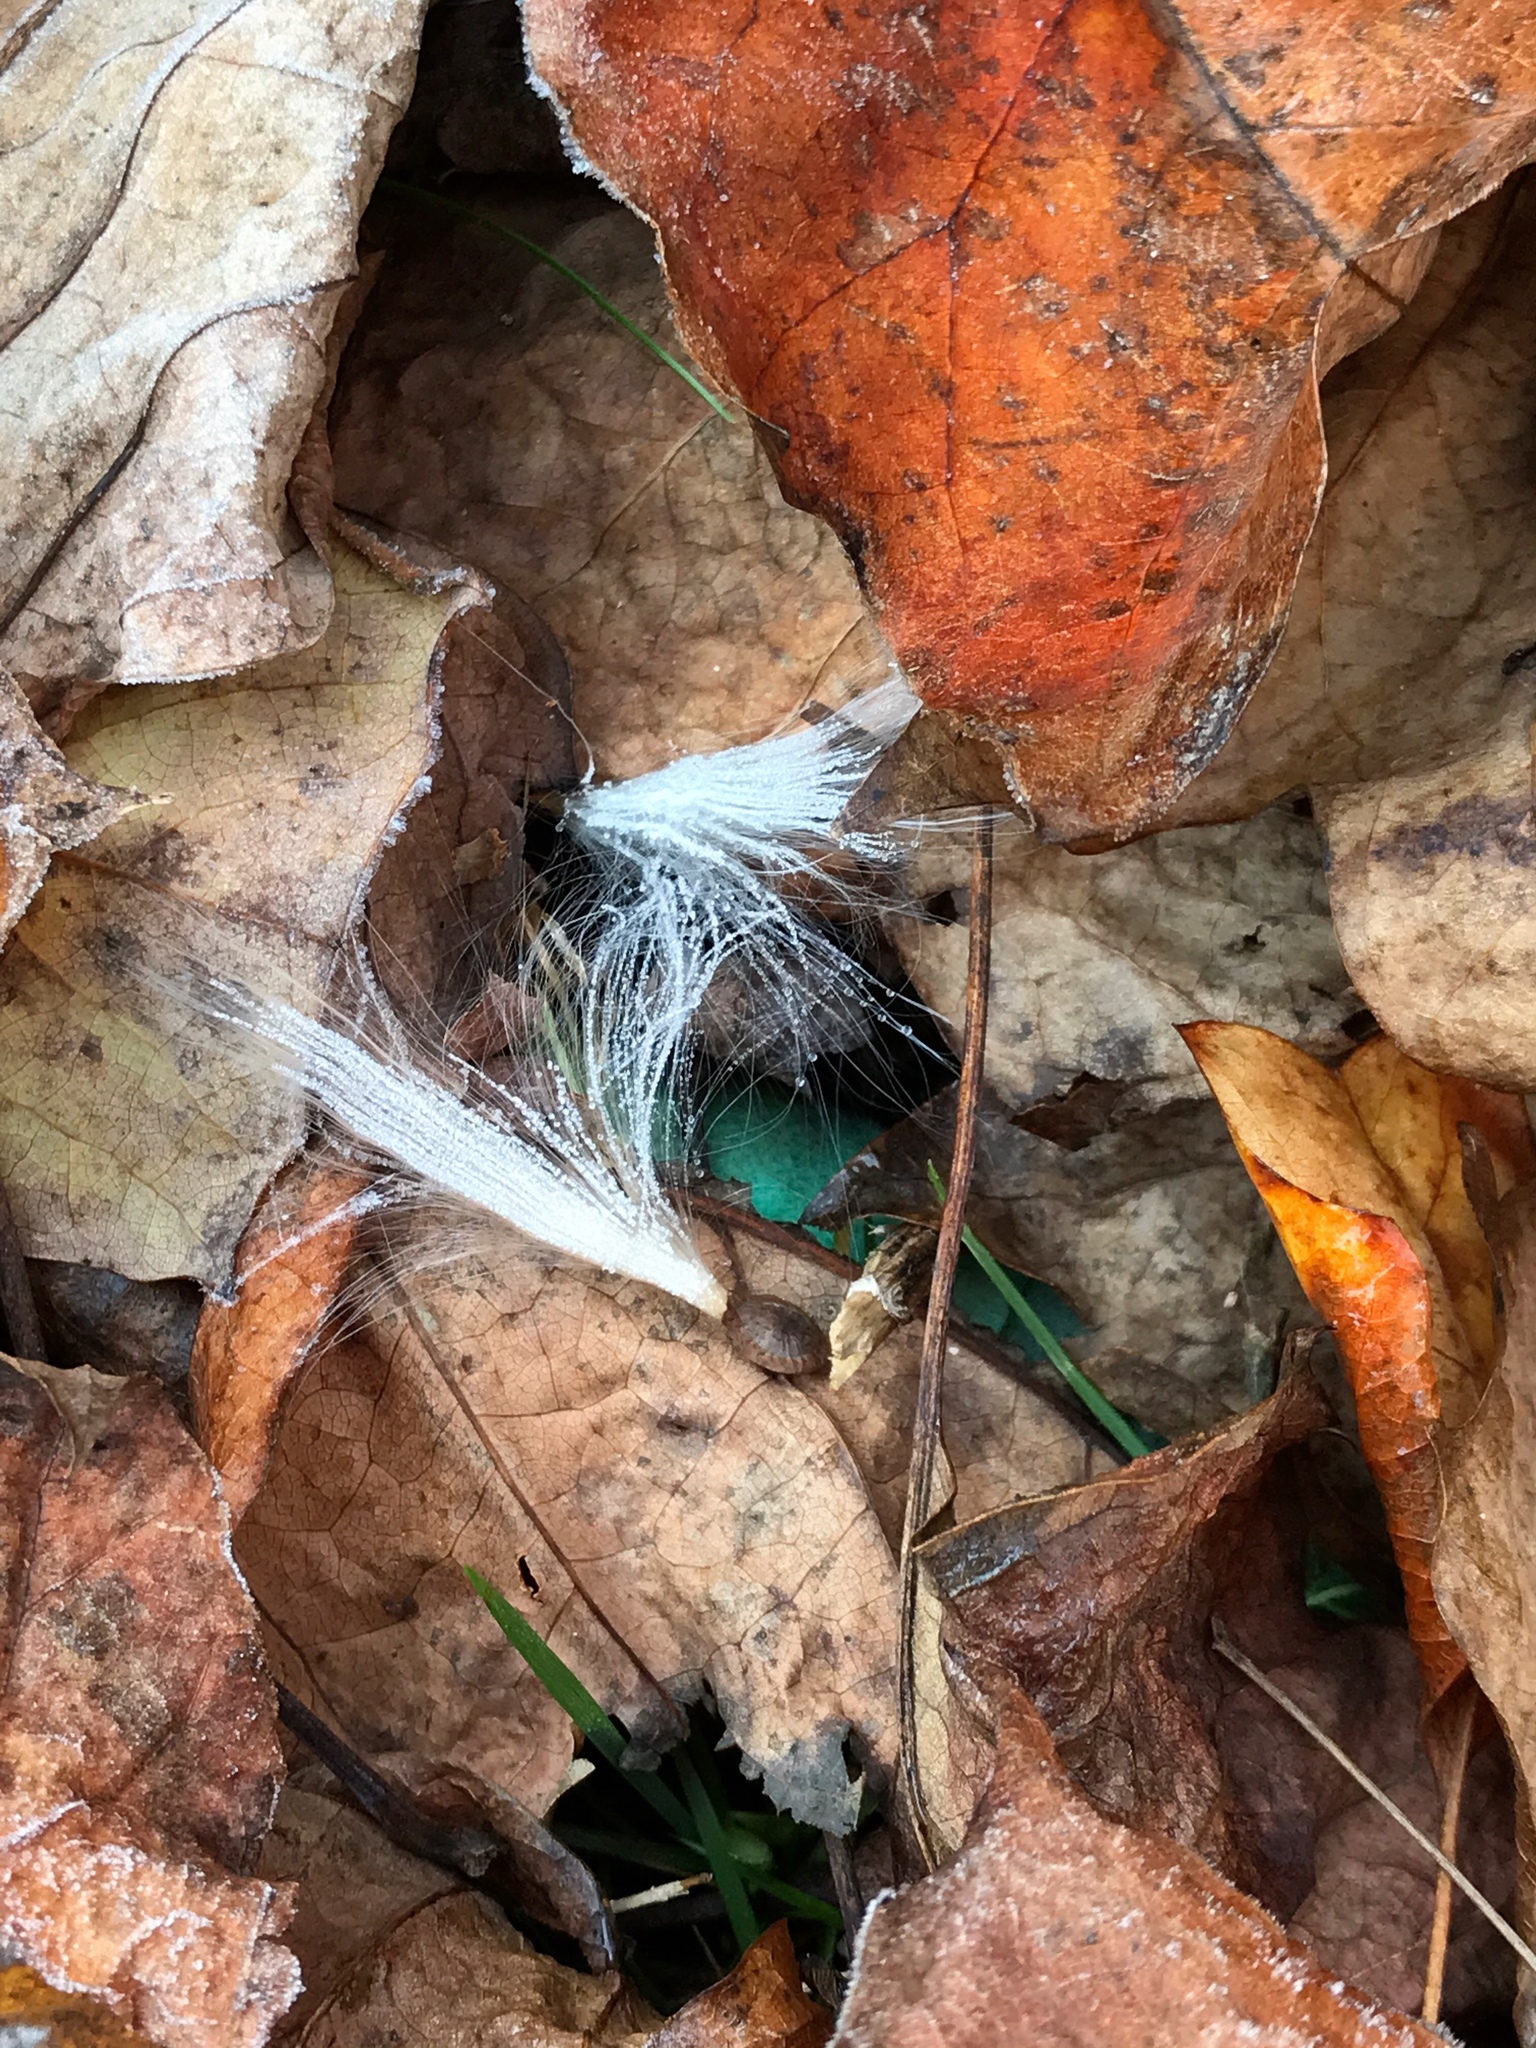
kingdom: Plantae
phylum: Tracheophyta
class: Magnoliopsida
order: Gentianales
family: Apocynaceae
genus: Asclepias
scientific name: Asclepias tuberosa
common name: Butterfly milkweed
